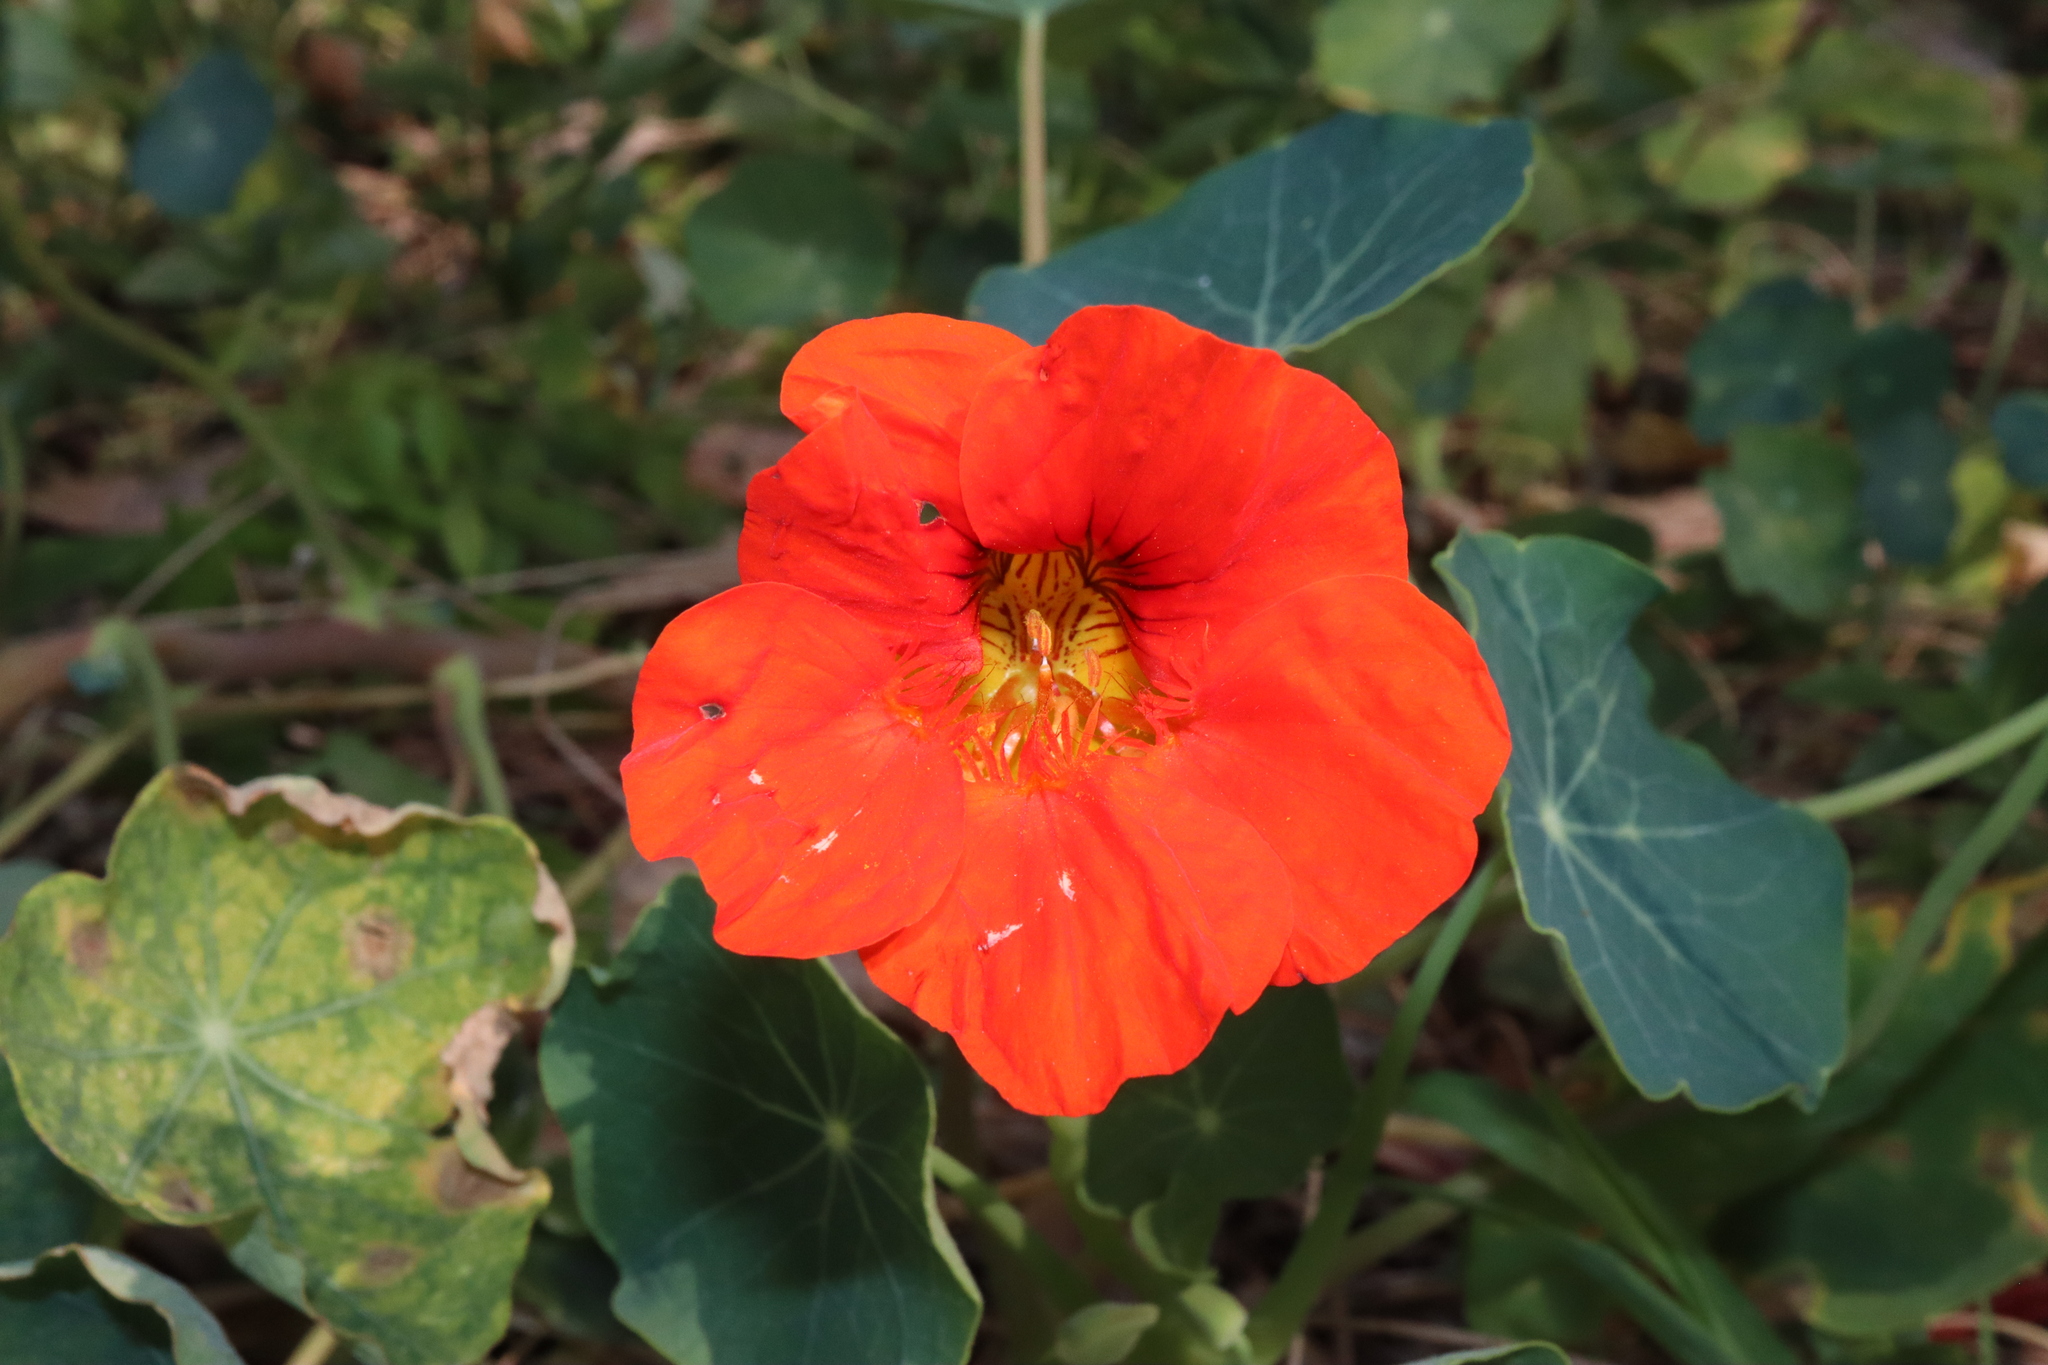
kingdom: Plantae
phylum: Tracheophyta
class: Magnoliopsida
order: Brassicales
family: Tropaeolaceae
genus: Tropaeolum
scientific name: Tropaeolum majus
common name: Nasturtium
